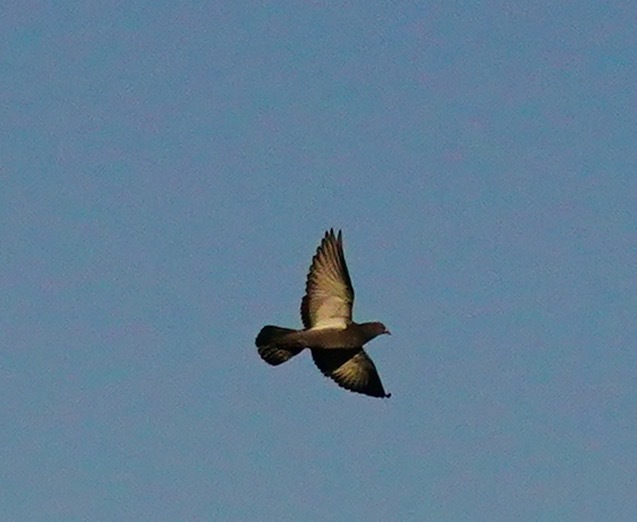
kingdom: Animalia
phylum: Chordata
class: Aves
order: Columbiformes
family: Columbidae
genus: Columba
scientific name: Columba livia
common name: Rock pigeon
